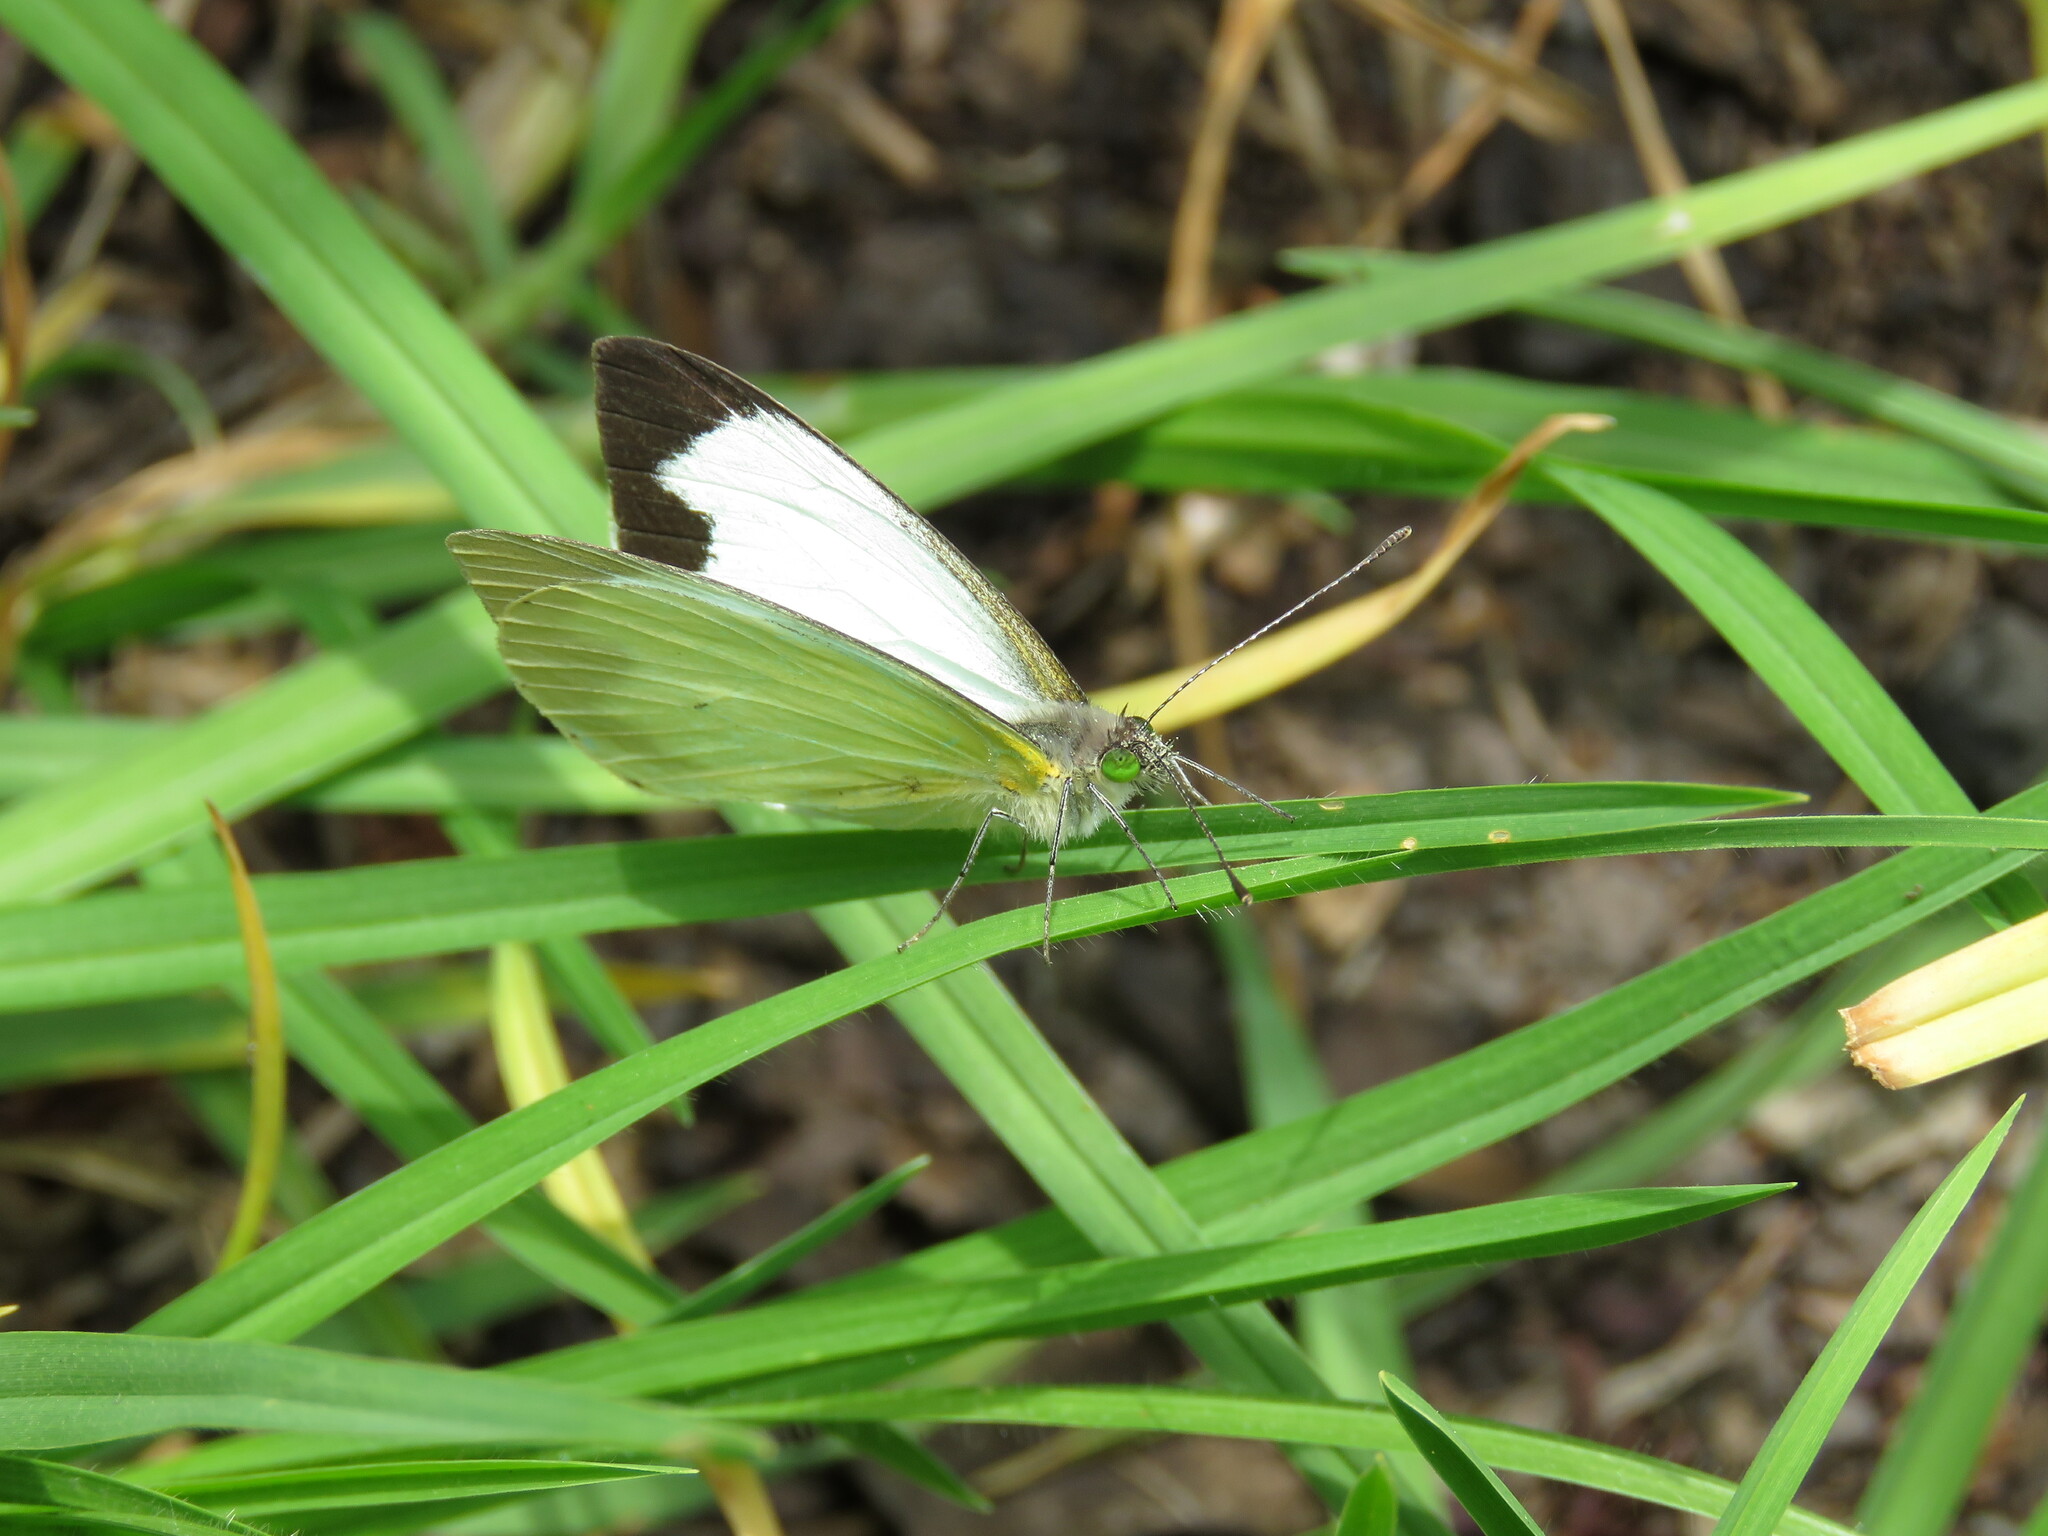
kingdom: Animalia
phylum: Arthropoda
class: Insecta
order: Lepidoptera
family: Pieridae
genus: Leptophobia
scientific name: Leptophobia aripa
